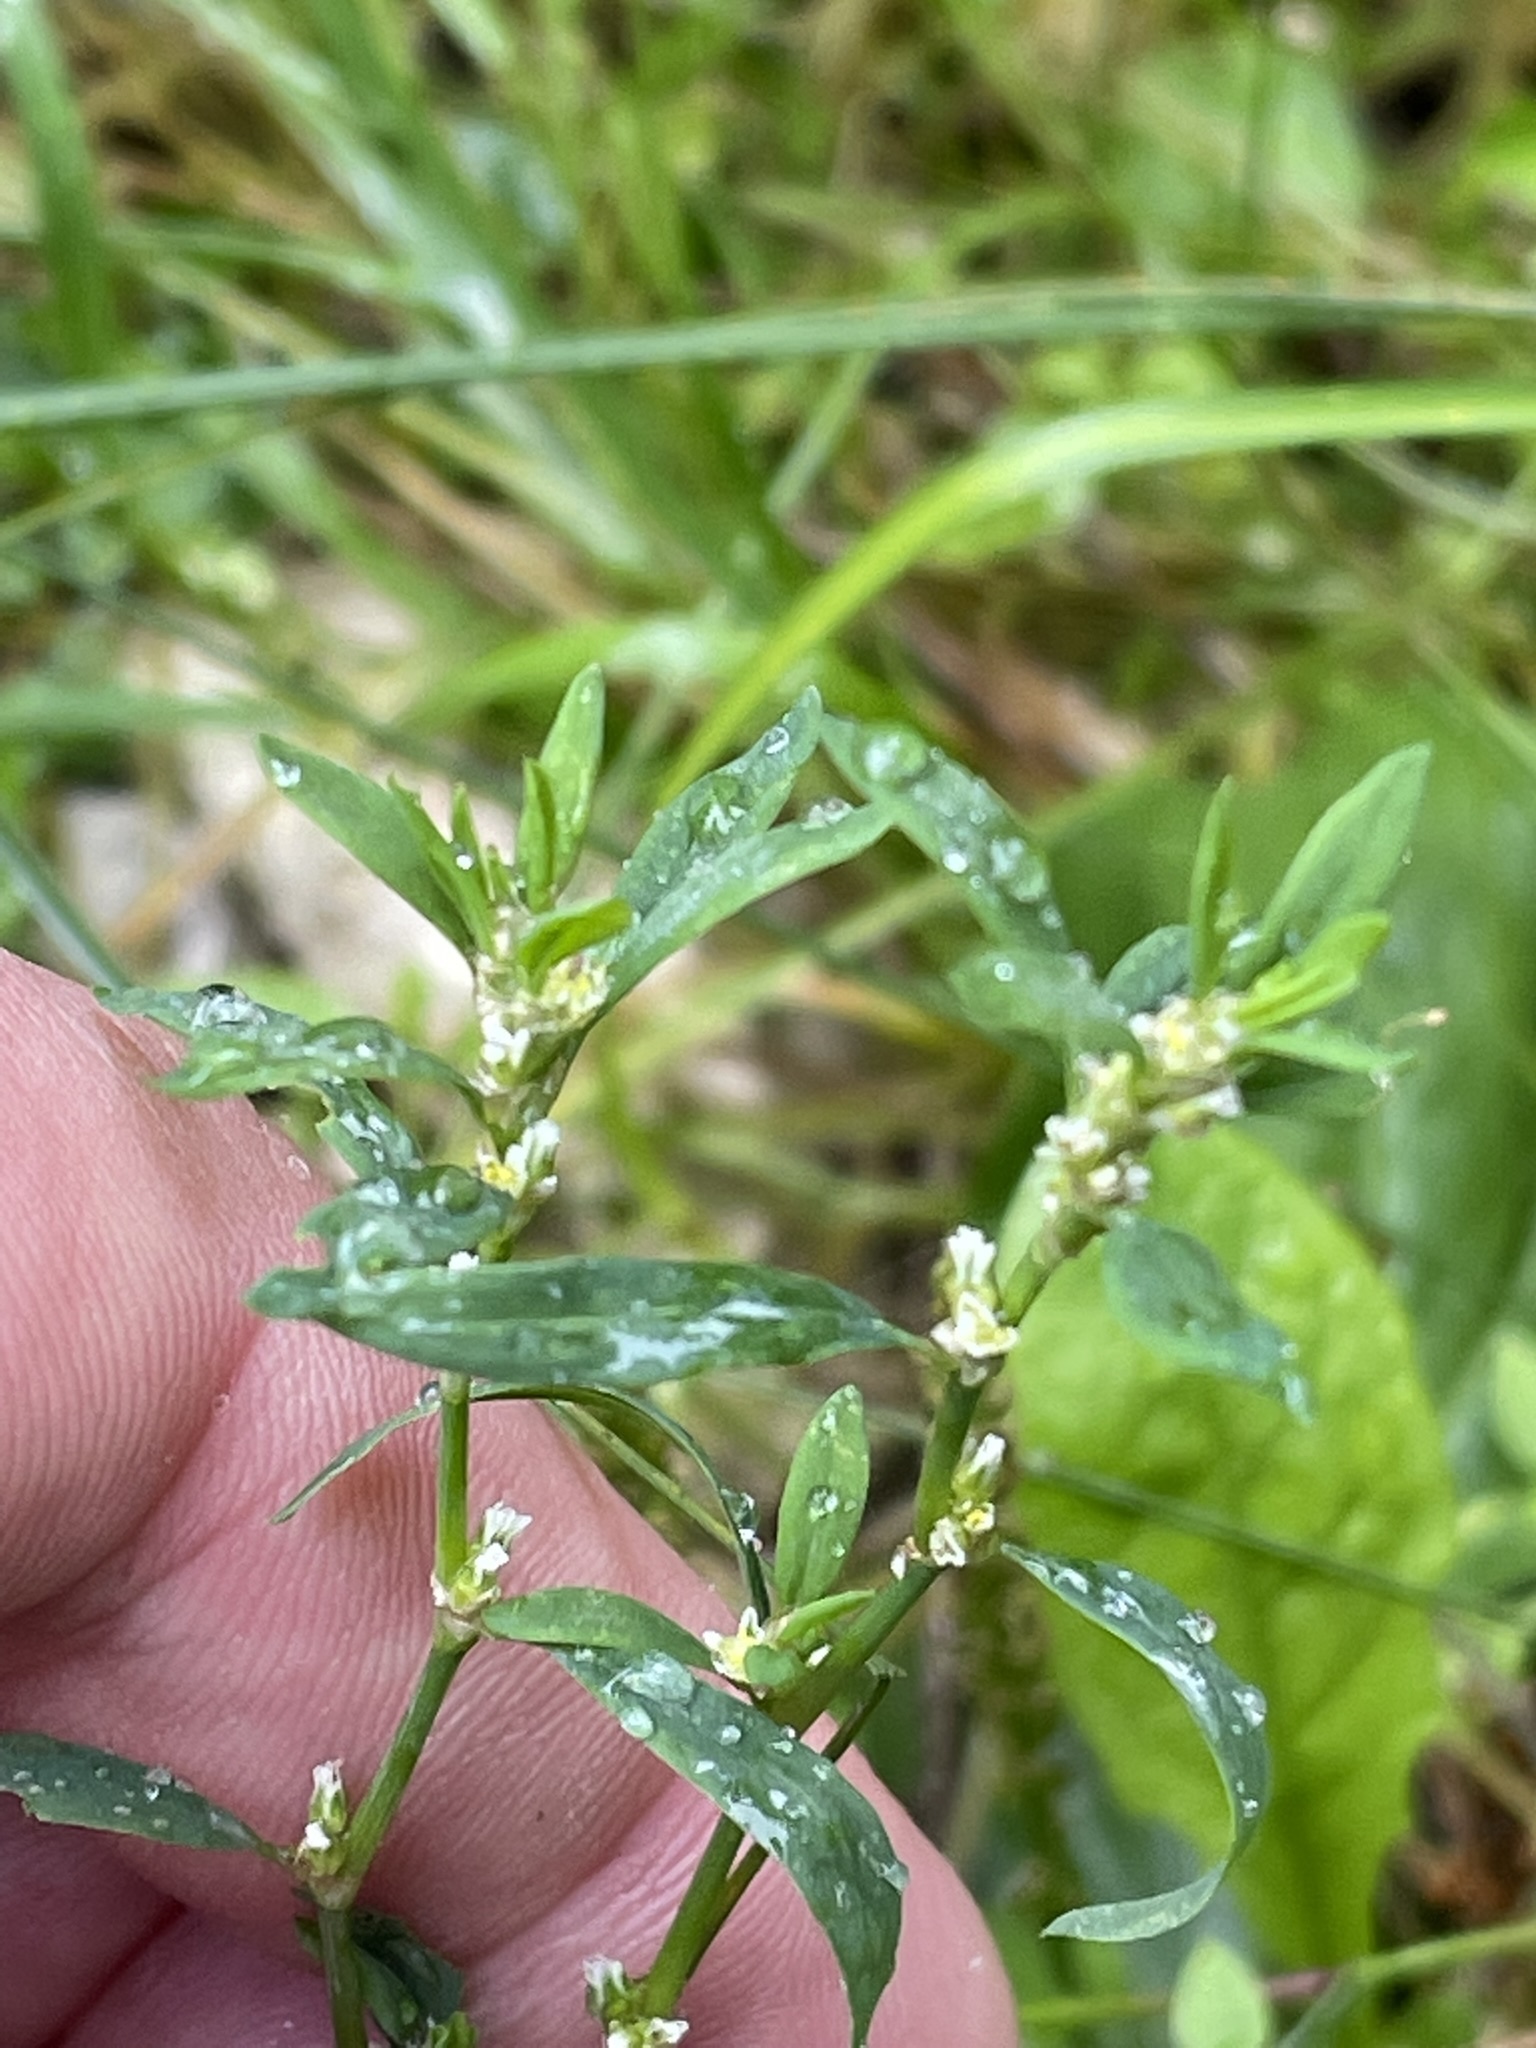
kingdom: Plantae
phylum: Tracheophyta
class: Magnoliopsida
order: Caryophyllales
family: Polygonaceae
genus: Polygonum
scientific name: Polygonum aviculare
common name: Prostrate knotweed
